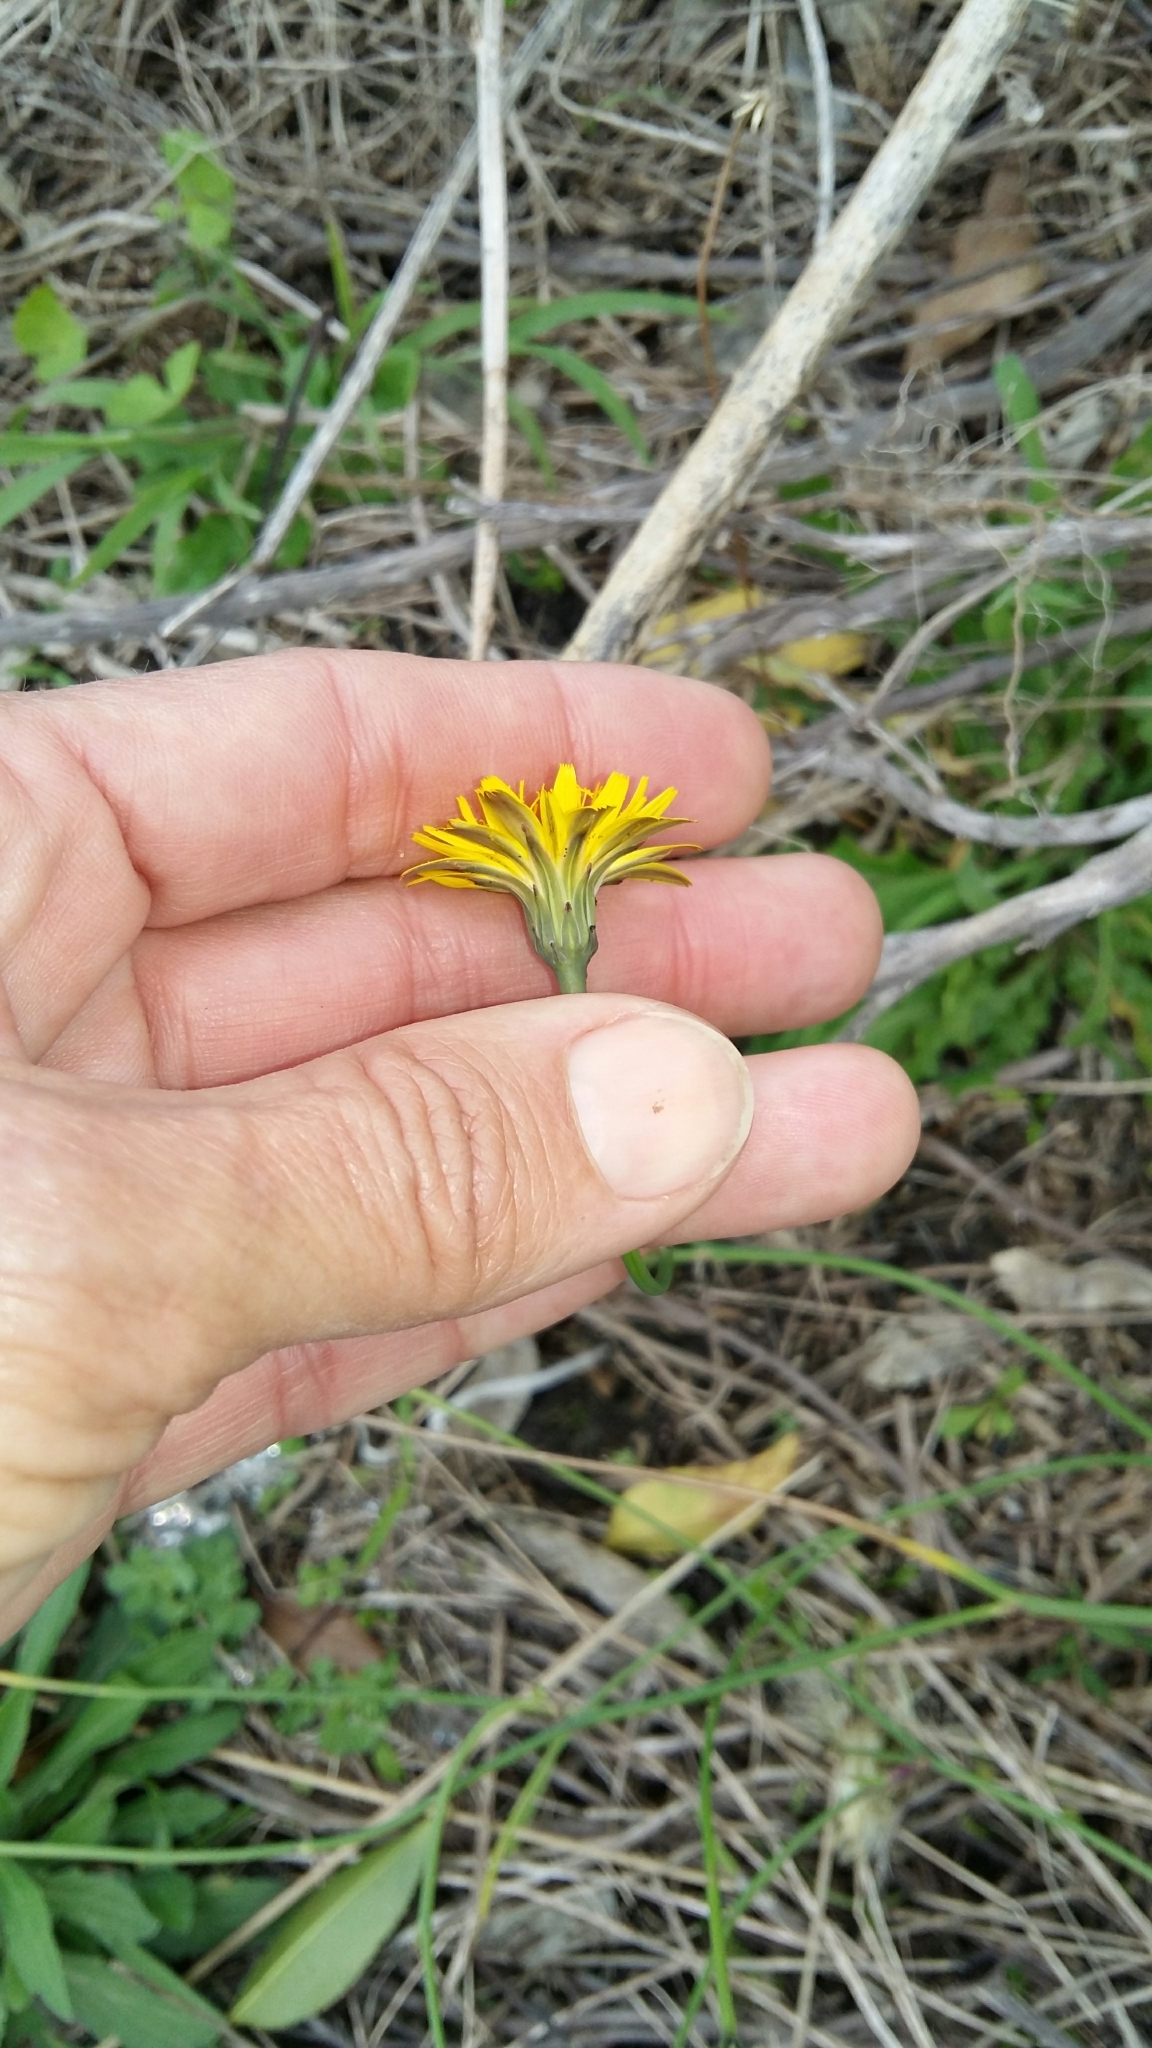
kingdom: Plantae
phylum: Tracheophyta
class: Magnoliopsida
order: Asterales
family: Asteraceae
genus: Hypochaeris
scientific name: Hypochaeris radicata
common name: Flatweed
